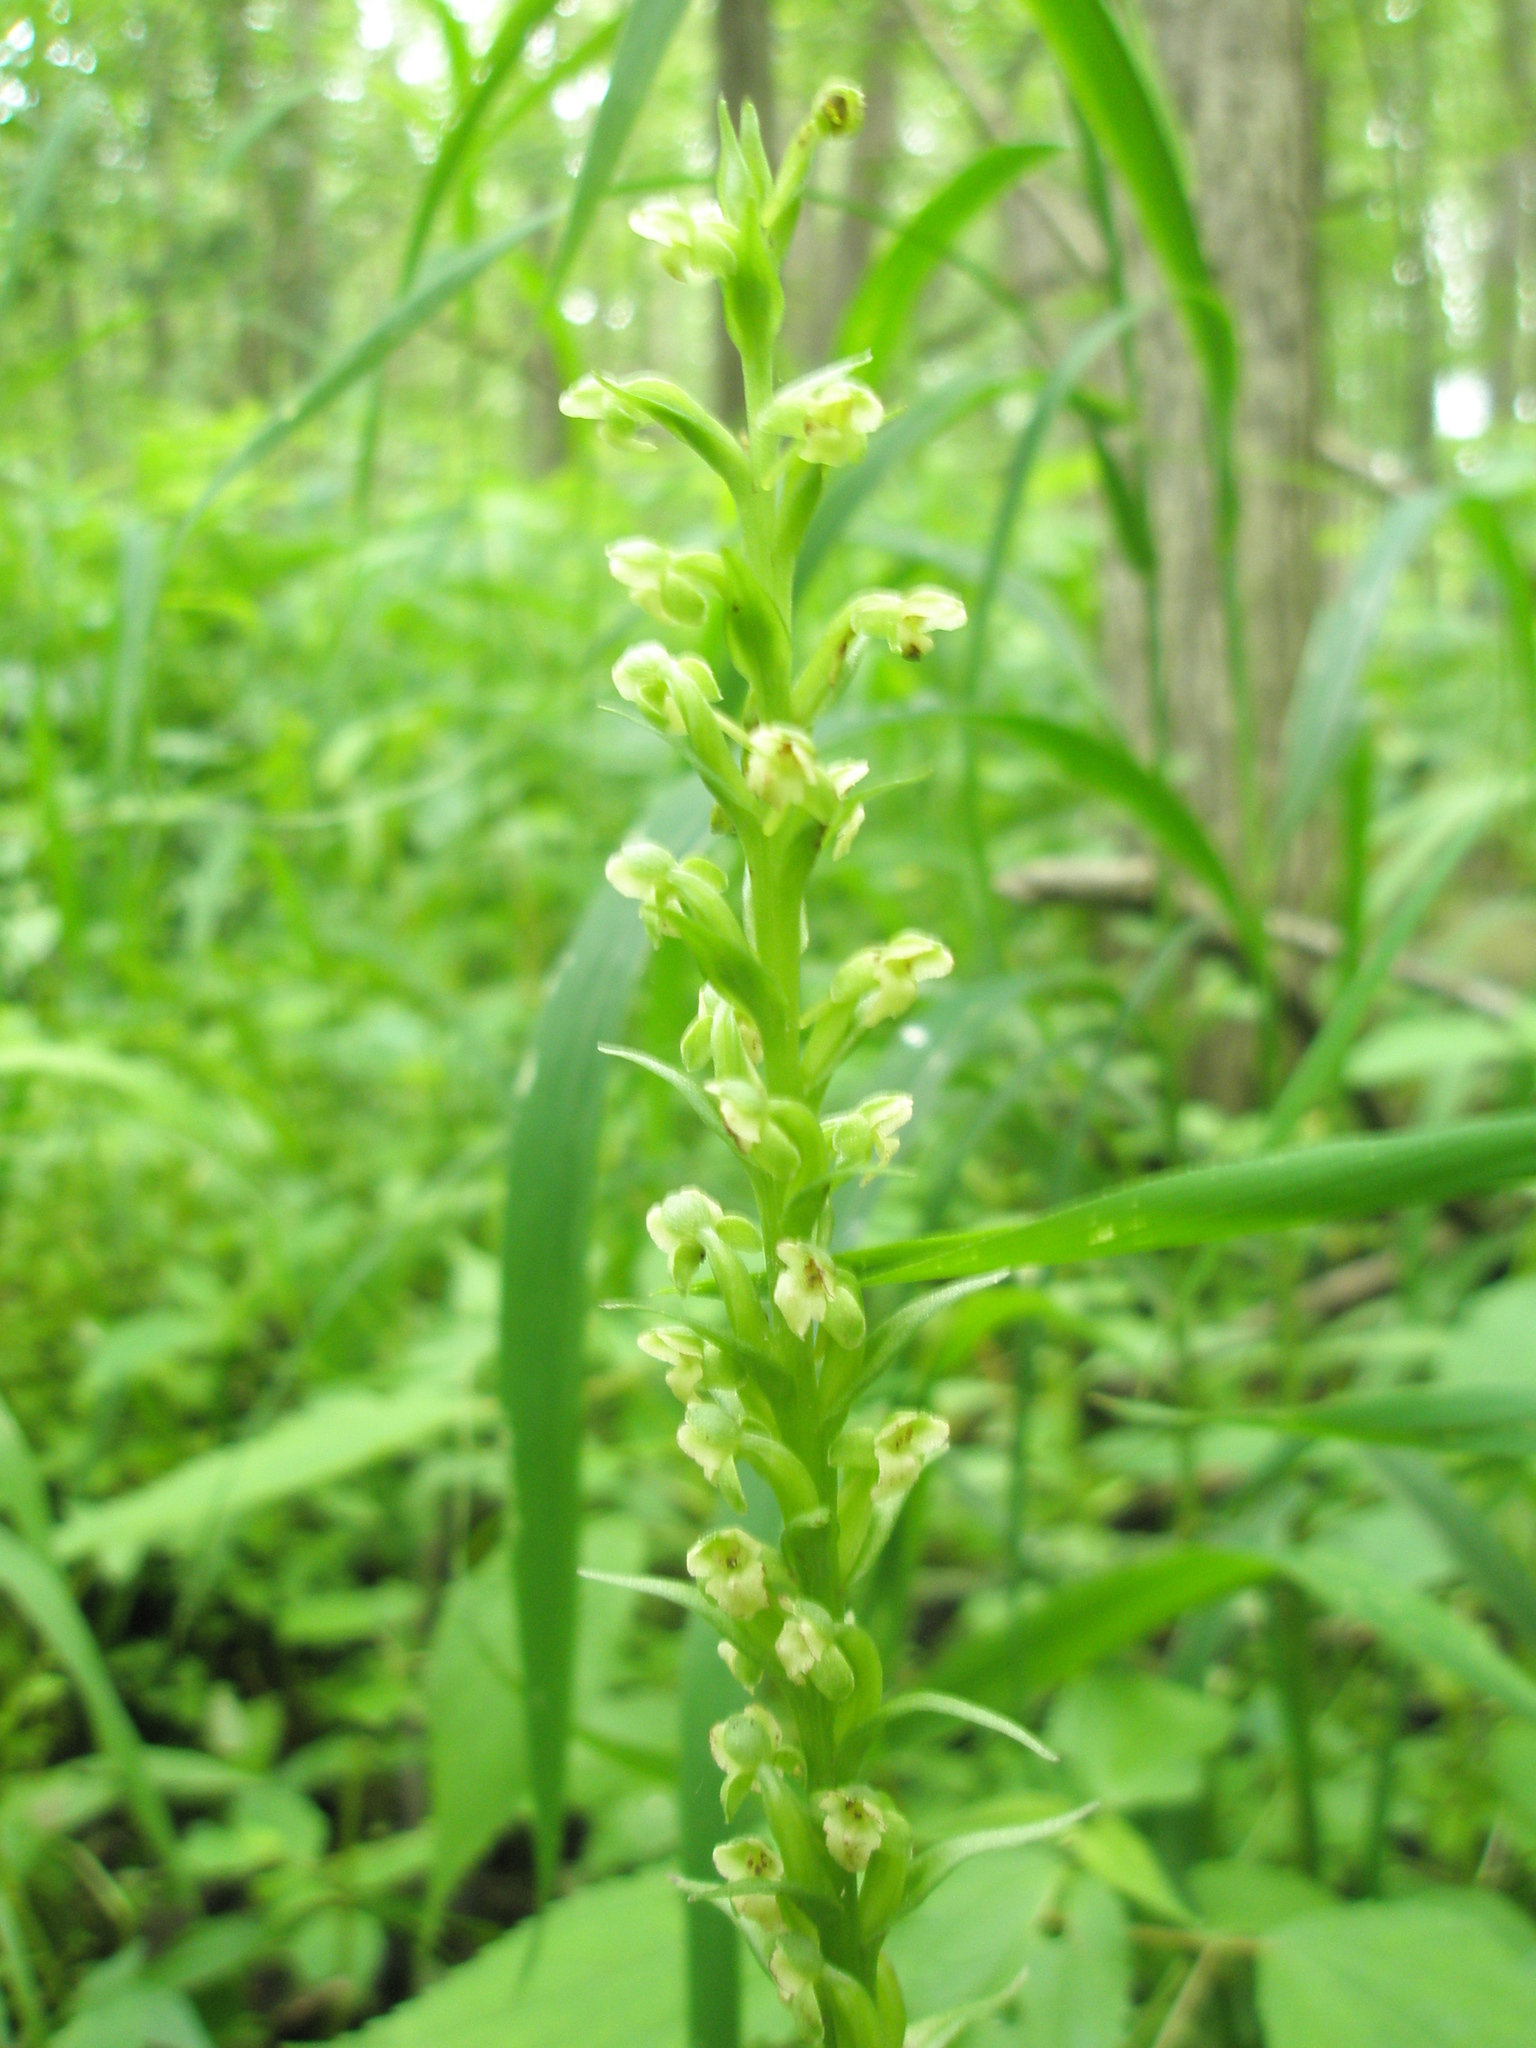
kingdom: Plantae
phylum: Tracheophyta
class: Liliopsida
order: Asparagales
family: Orchidaceae
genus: Platanthera
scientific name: Platanthera flava
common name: Gypsy-spikes
